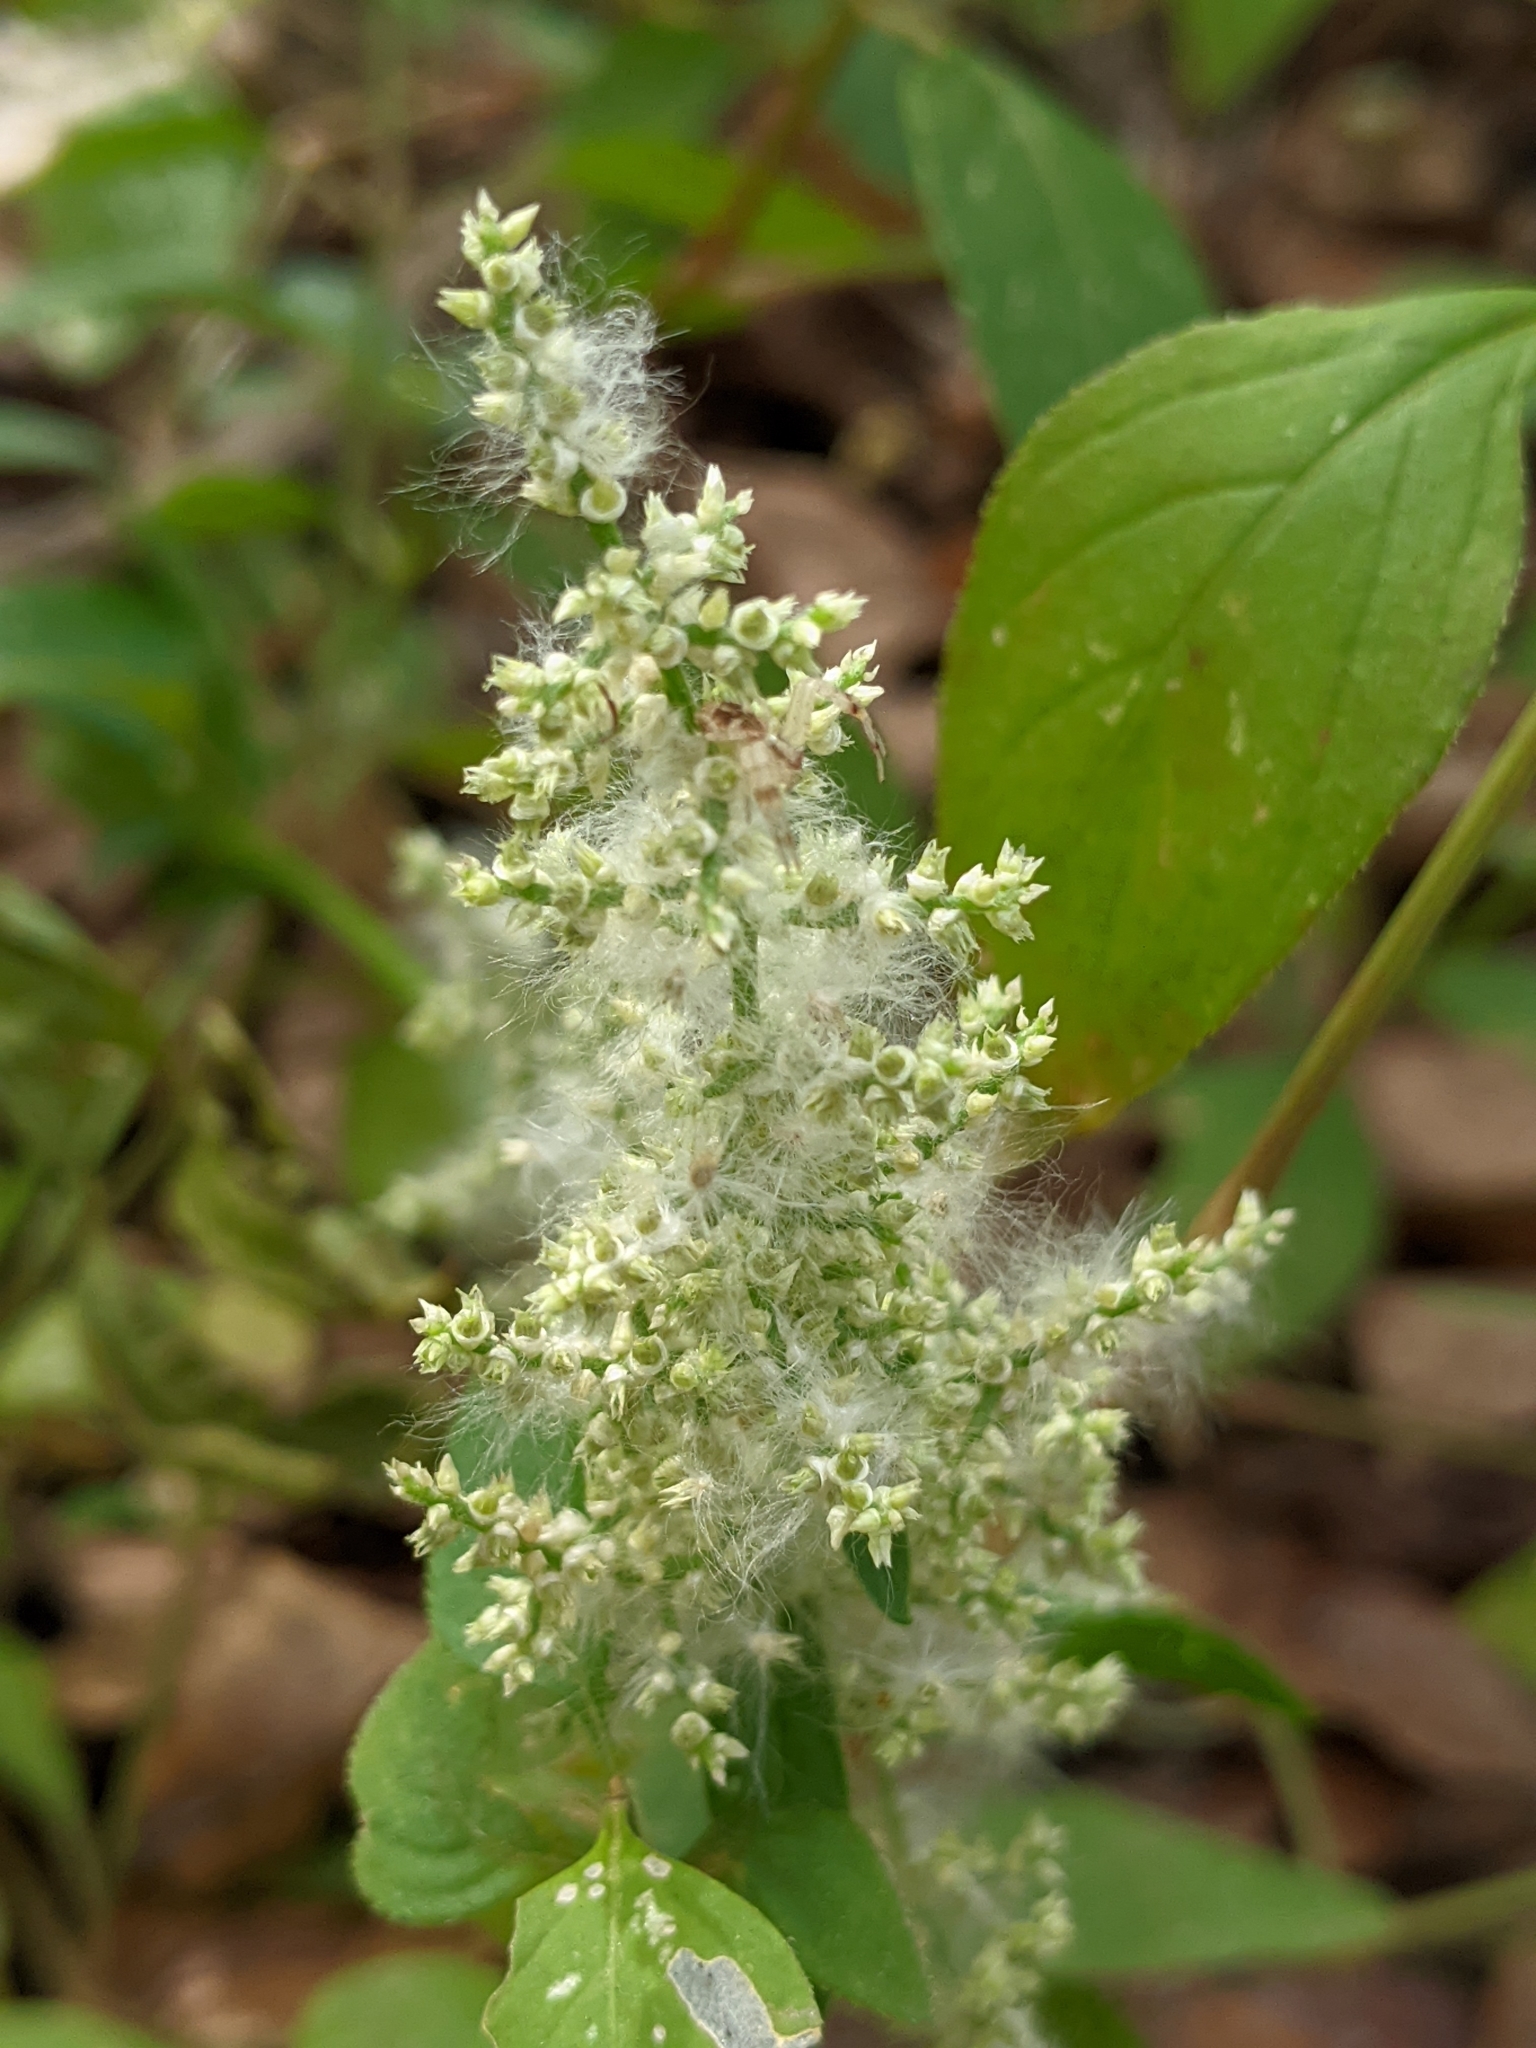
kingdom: Plantae
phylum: Tracheophyta
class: Magnoliopsida
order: Caryophyllales
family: Amaranthaceae
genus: Iresine
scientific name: Iresine heterophylla
